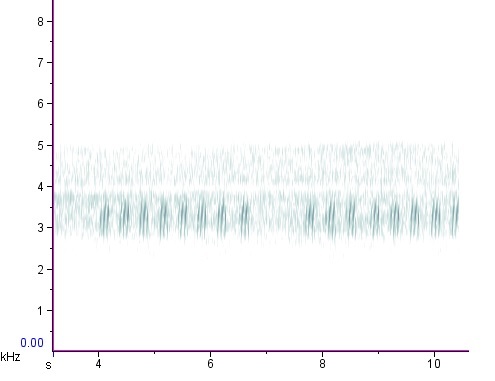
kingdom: Animalia
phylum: Arthropoda
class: Insecta
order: Orthoptera
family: Gryllidae
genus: Velarifictorus
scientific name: Velarifictorus micado
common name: Japanese burrowing cricket
